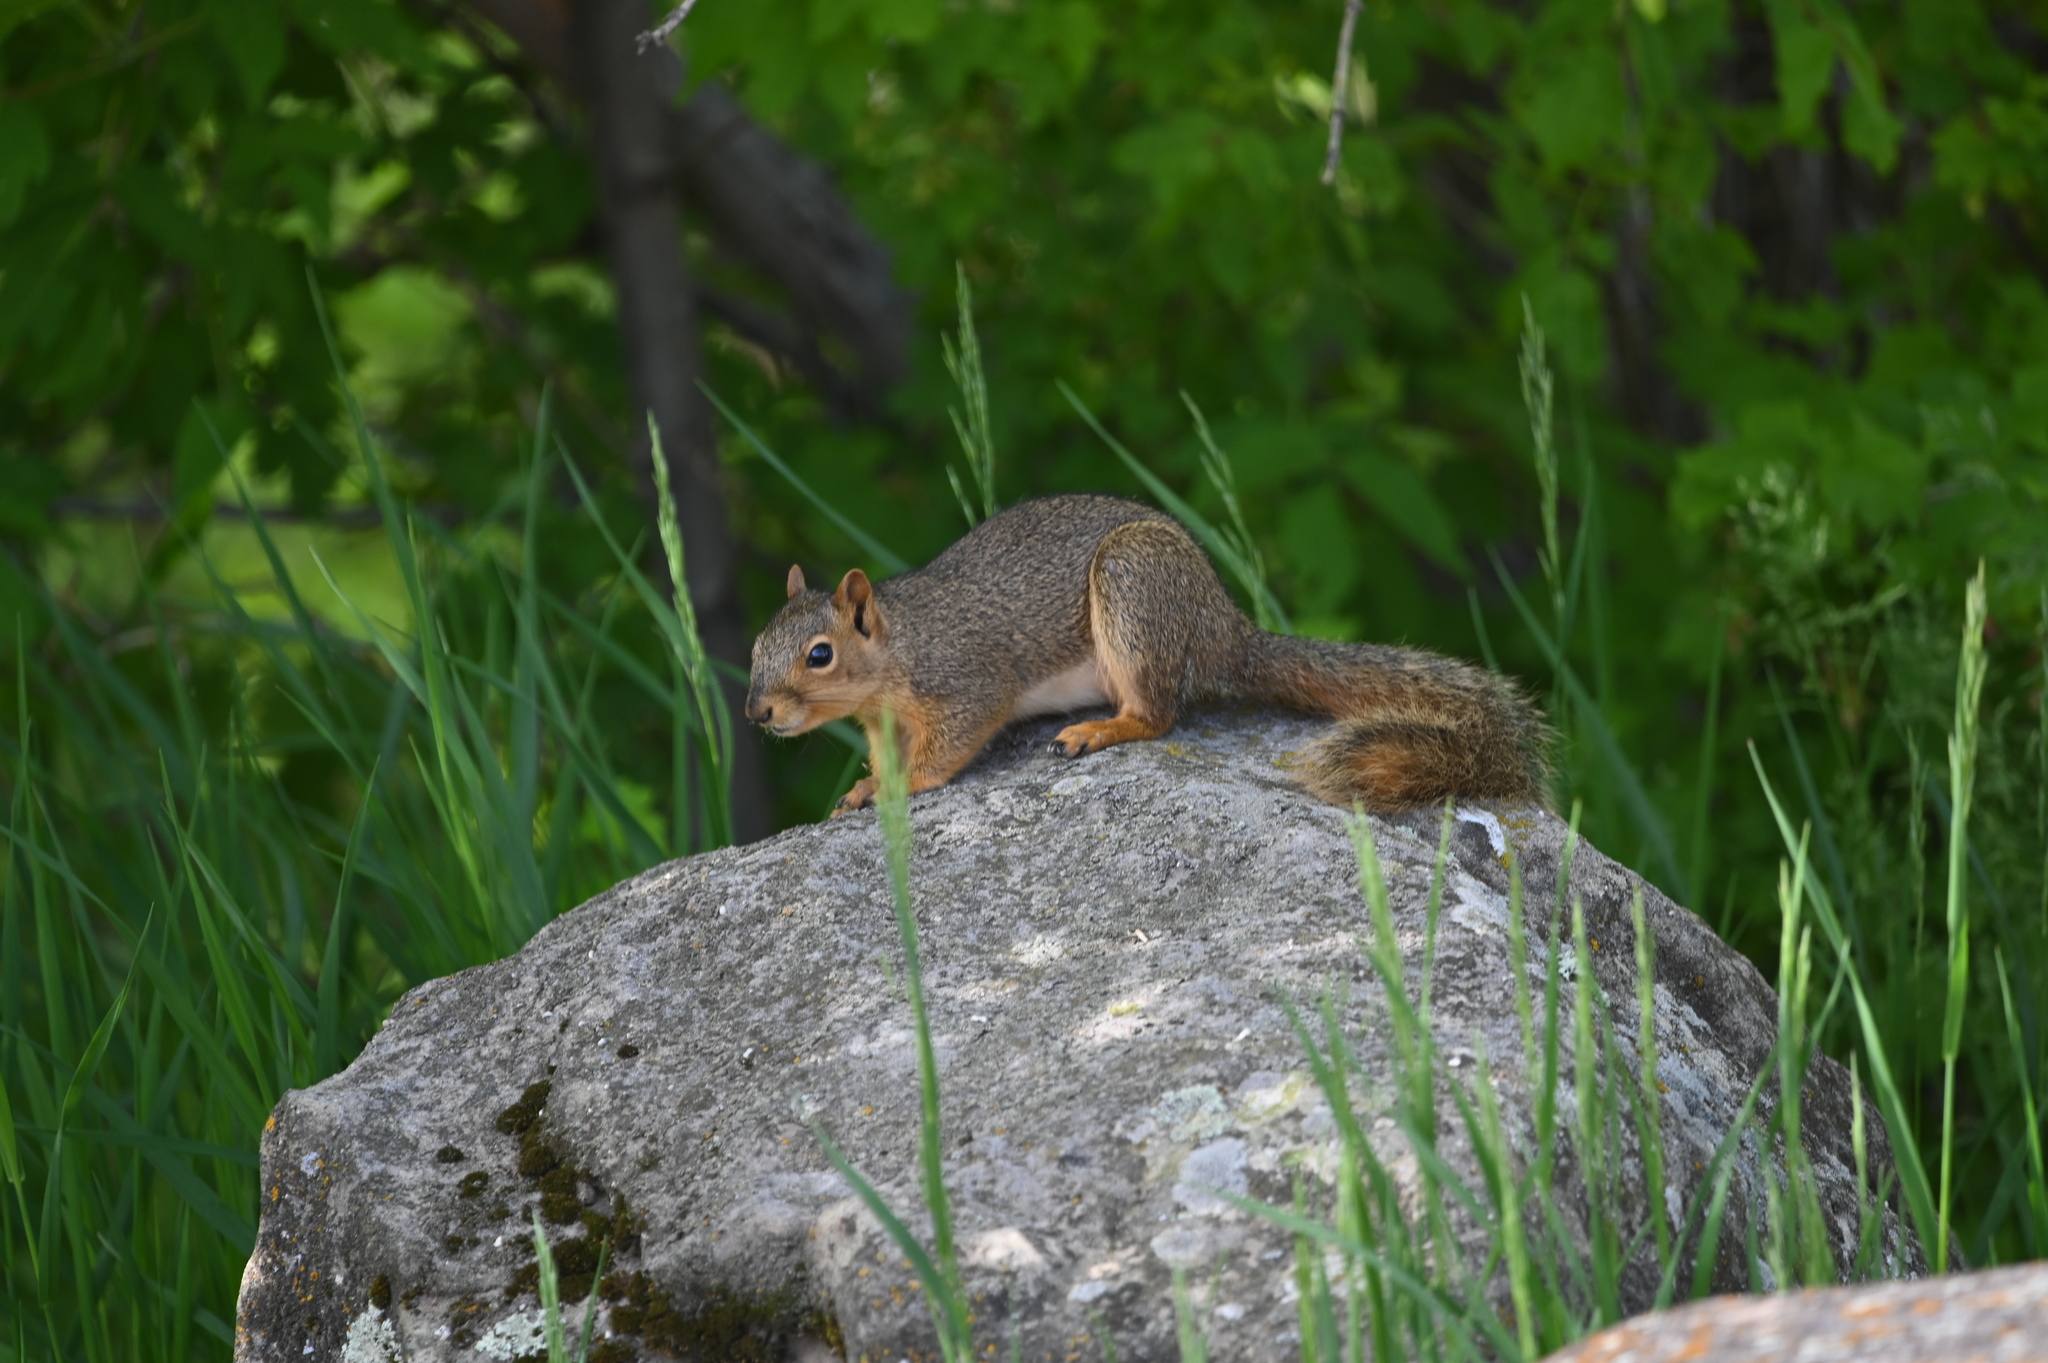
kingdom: Animalia
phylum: Chordata
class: Mammalia
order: Rodentia
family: Sciuridae
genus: Sciurus
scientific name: Sciurus niger
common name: Fox squirrel
